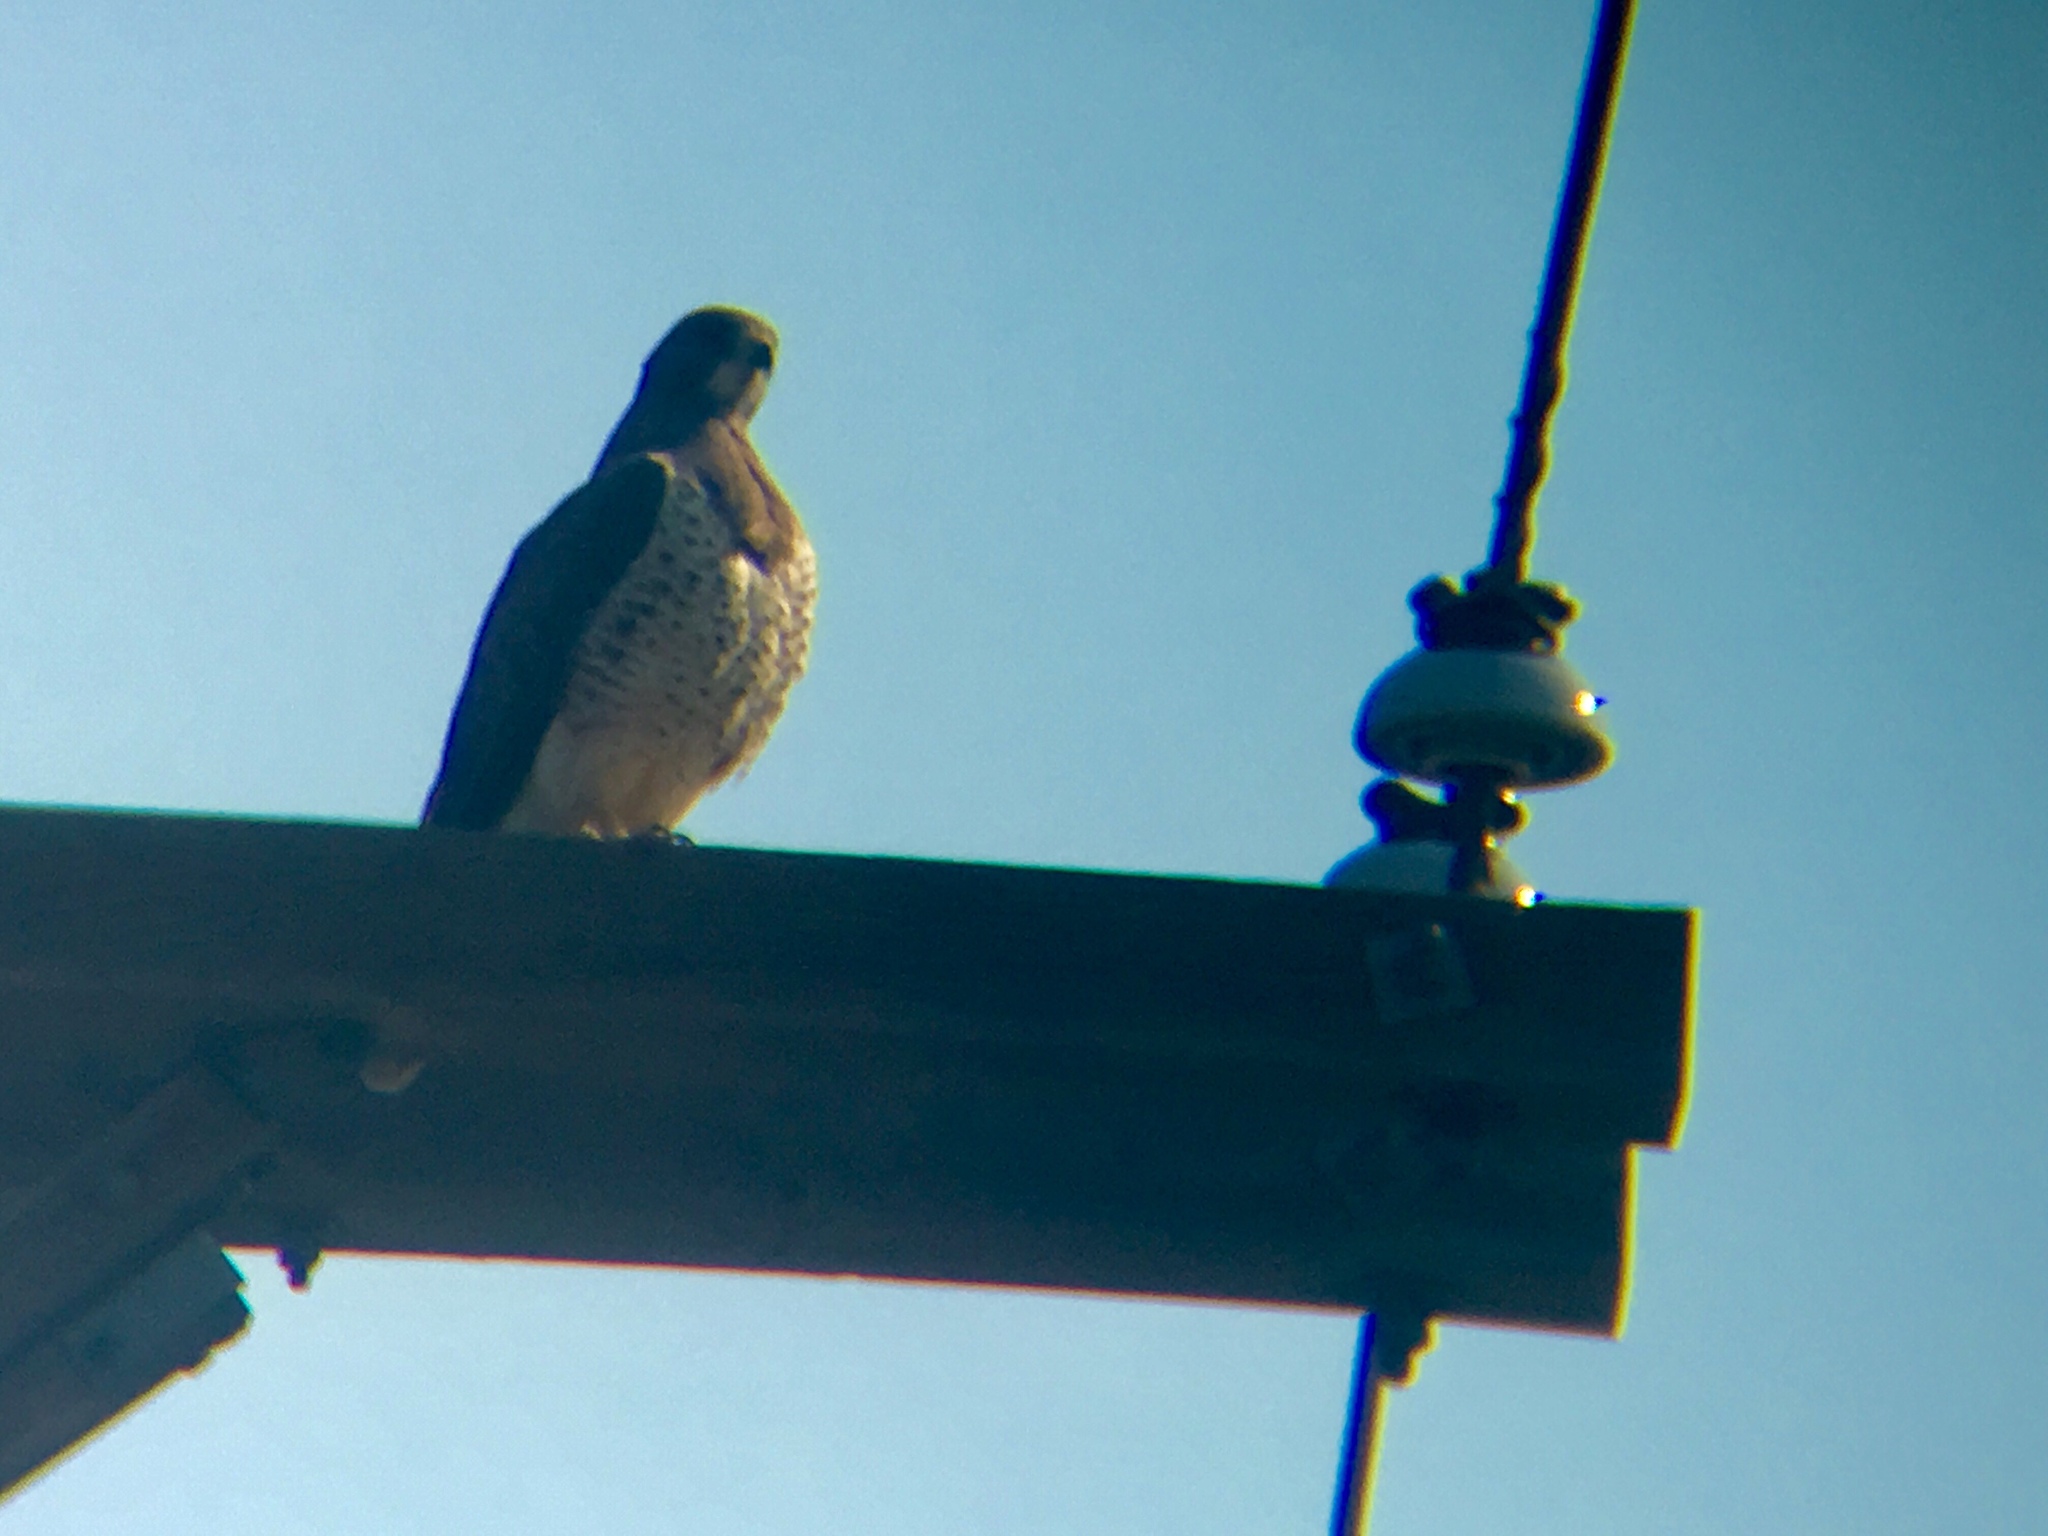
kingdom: Animalia
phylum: Chordata
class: Aves
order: Accipitriformes
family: Accipitridae
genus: Buteo
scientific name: Buteo swainsoni
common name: Swainson's hawk
